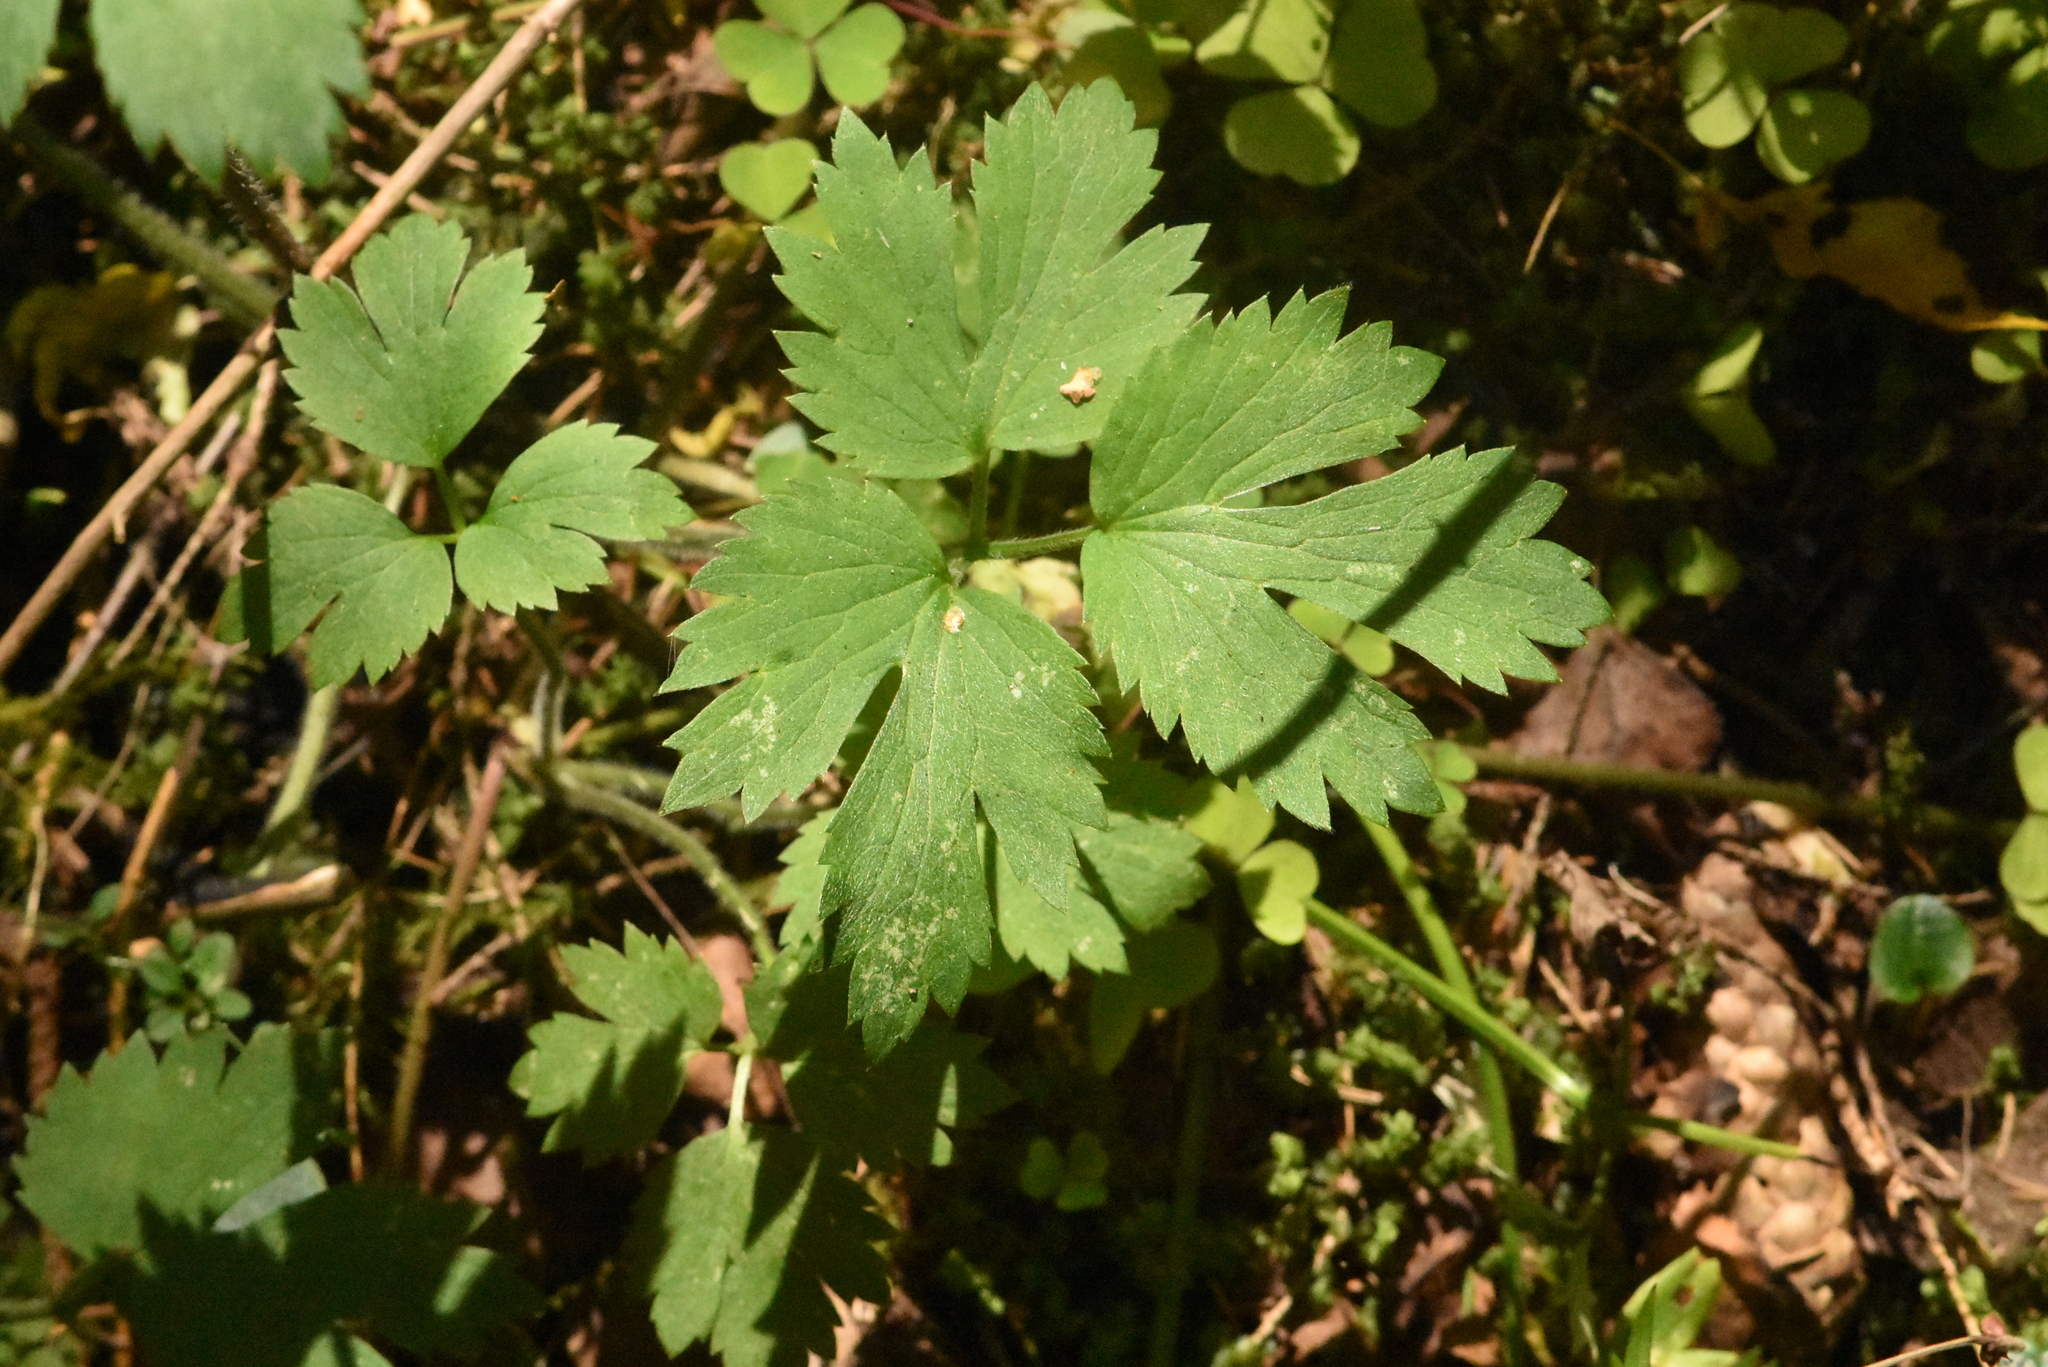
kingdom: Plantae
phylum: Tracheophyta
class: Magnoliopsida
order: Ranunculales
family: Ranunculaceae
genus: Ranunculus
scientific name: Ranunculus repens
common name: Creeping buttercup
